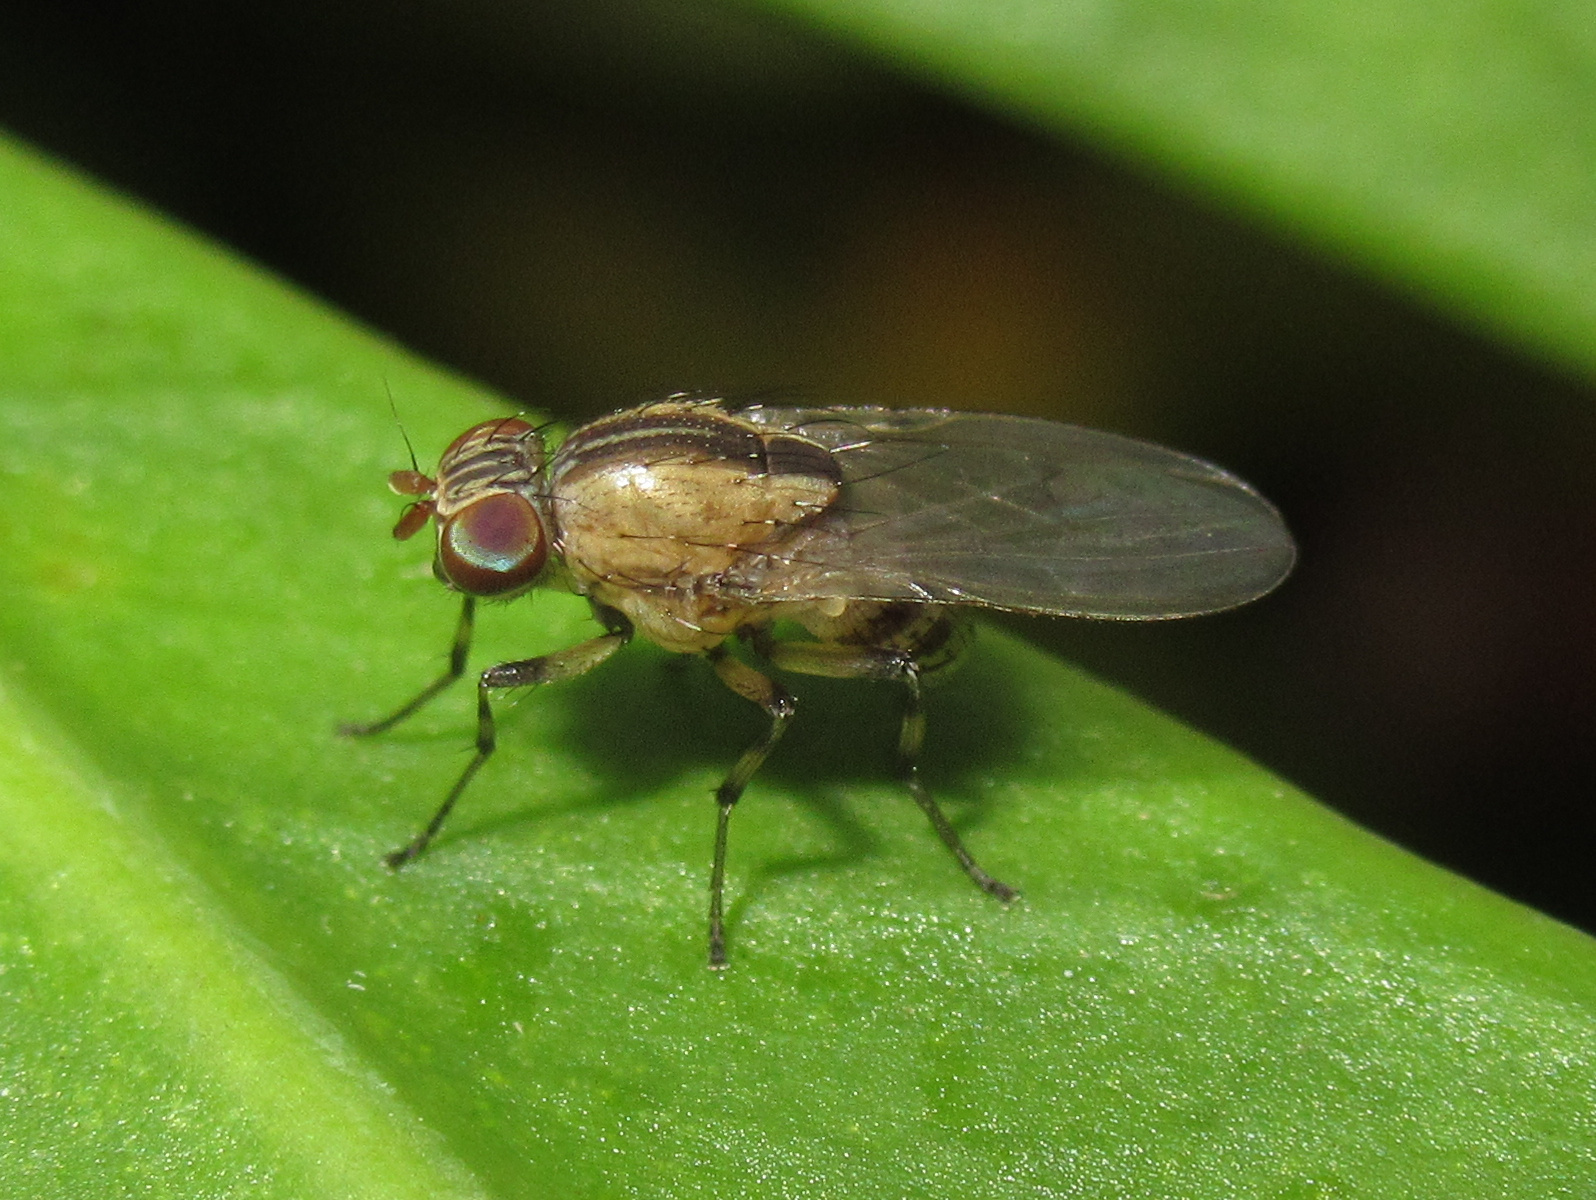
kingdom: Animalia
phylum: Arthropoda
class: Insecta
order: Diptera
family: Lauxaniidae
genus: Sapromyza
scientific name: Sapromyza neozelandica
